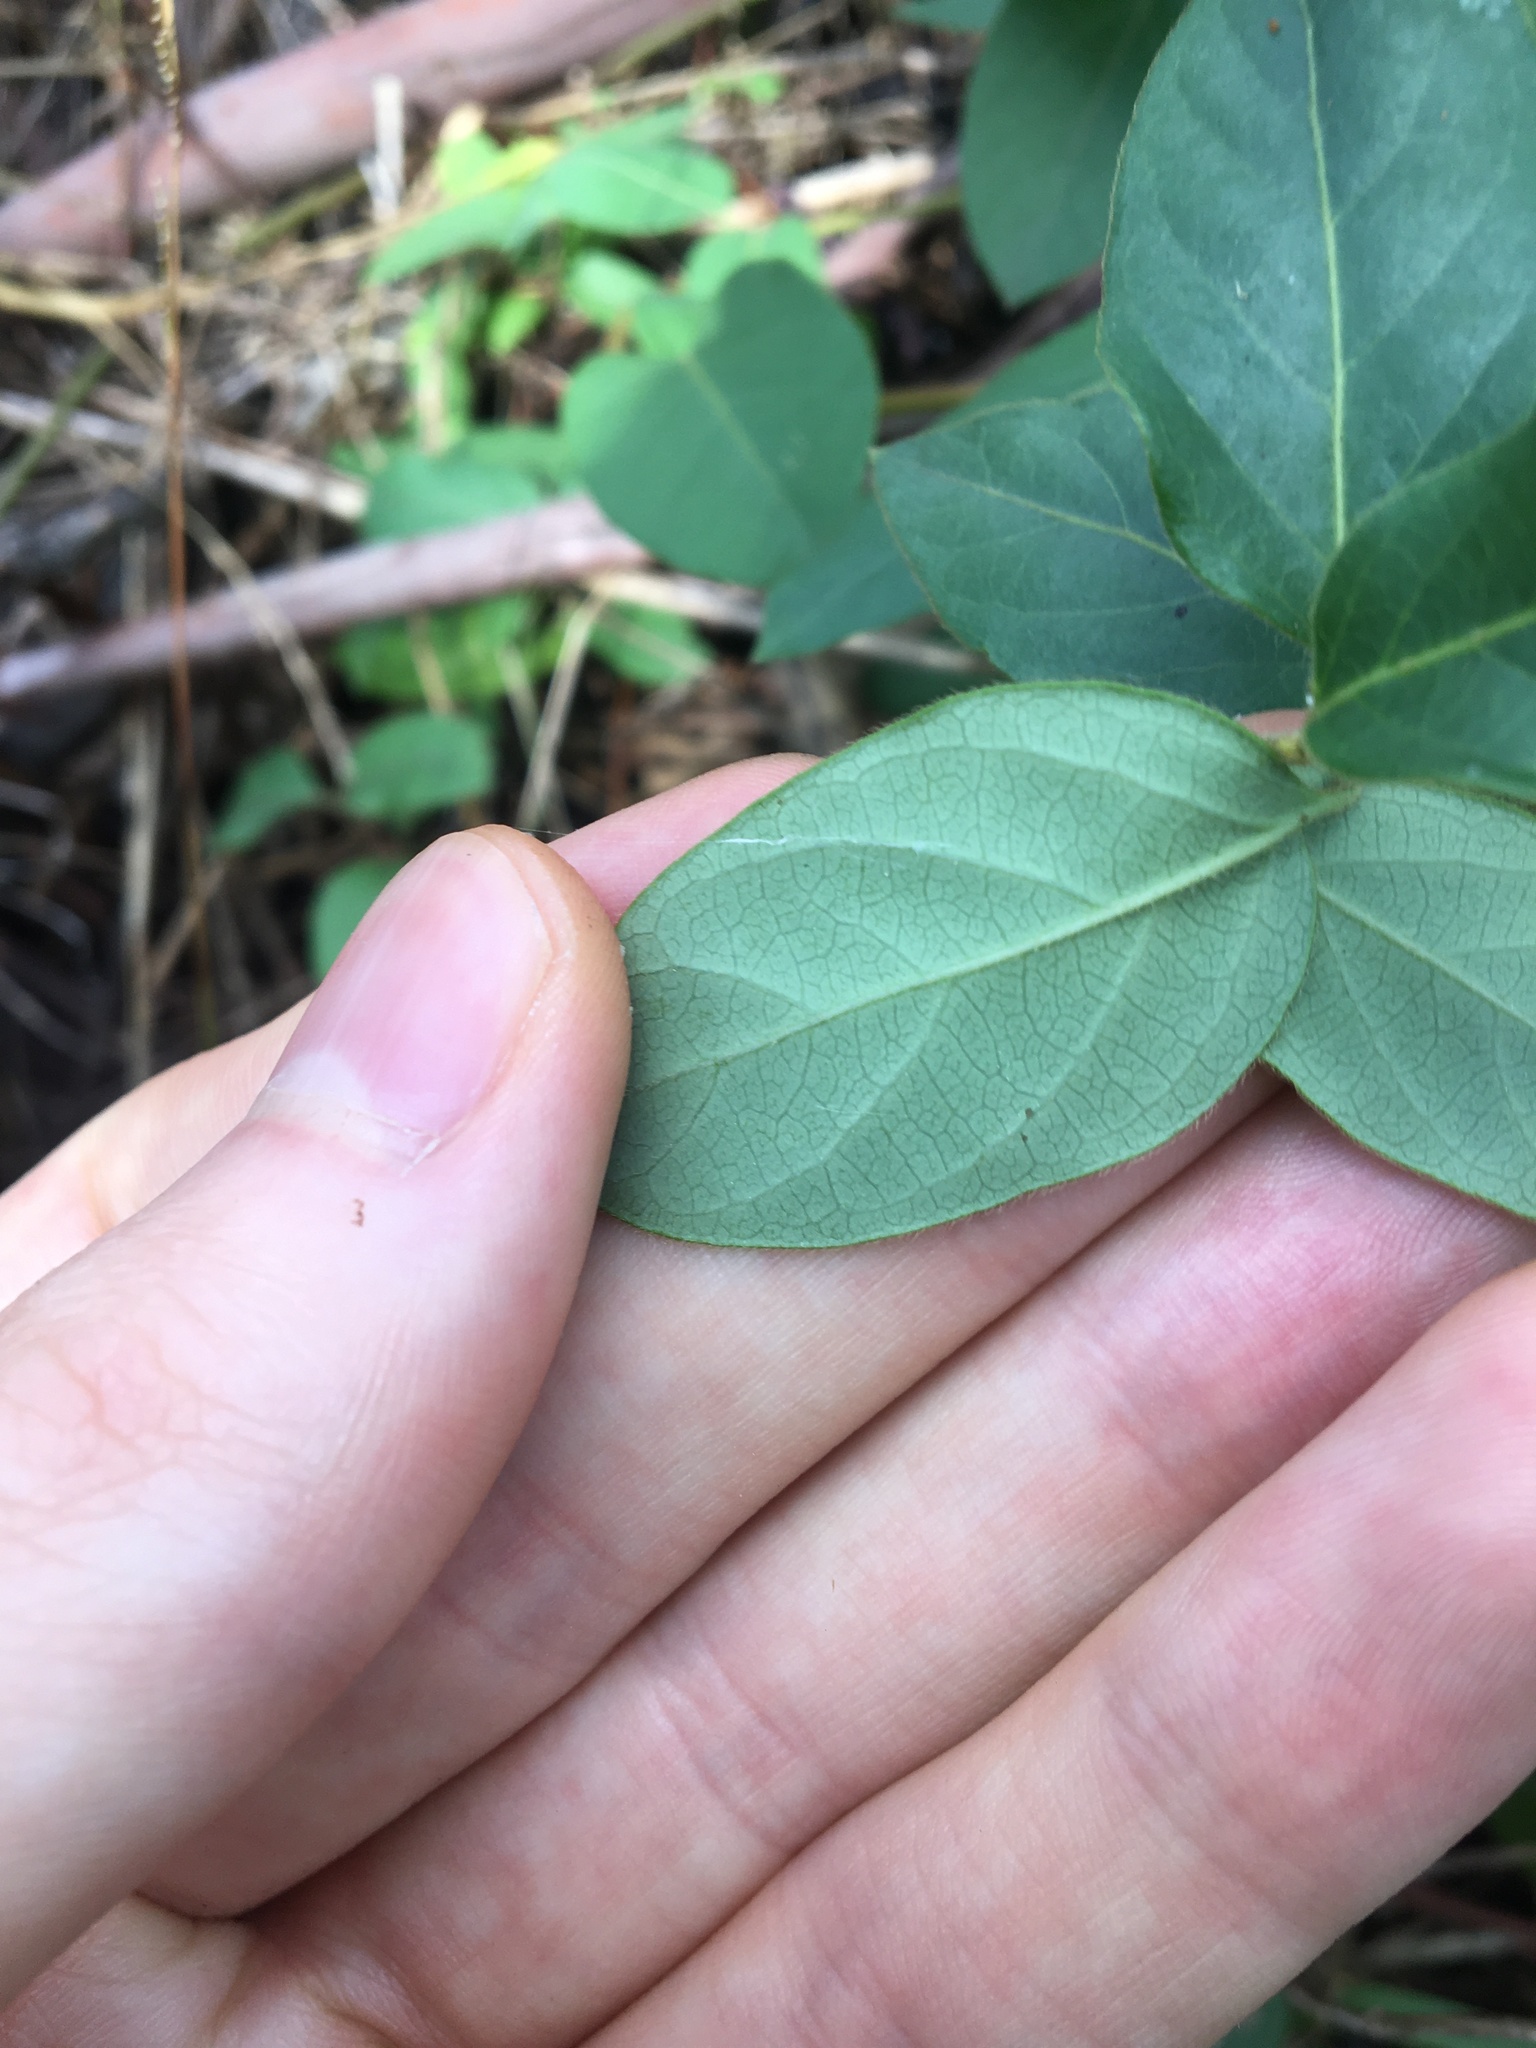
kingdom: Plantae
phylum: Tracheophyta
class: Magnoliopsida
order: Dipsacales
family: Caprifoliaceae
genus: Lonicera
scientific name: Lonicera japonica
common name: Japanese honeysuckle
